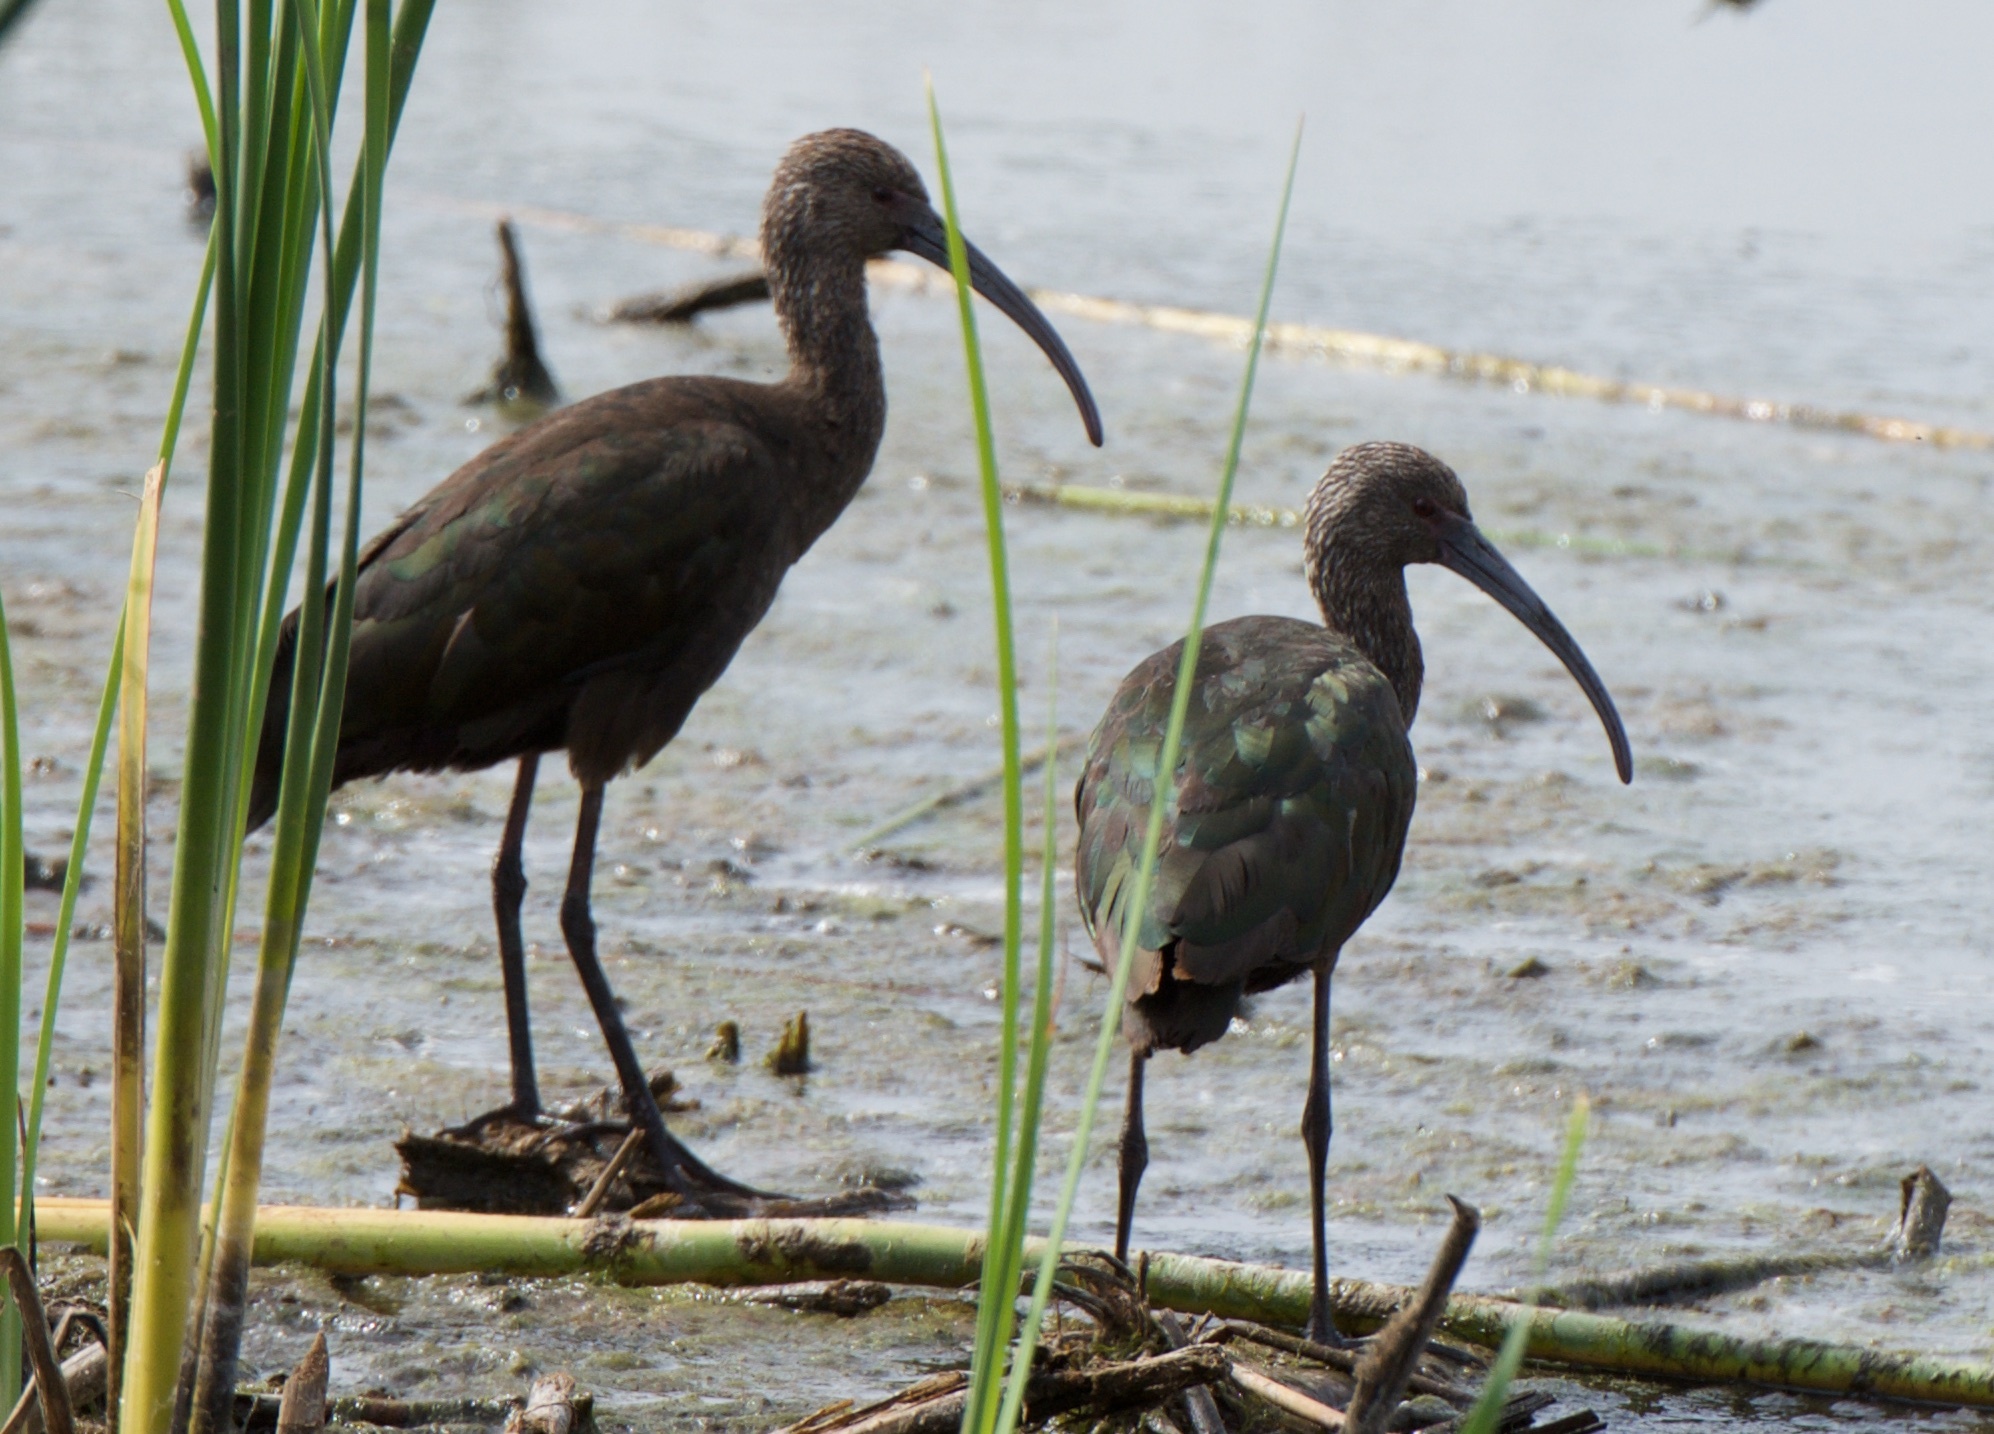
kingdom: Animalia
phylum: Chordata
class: Aves
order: Pelecaniformes
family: Threskiornithidae
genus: Plegadis
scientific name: Plegadis chihi
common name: White-faced ibis
